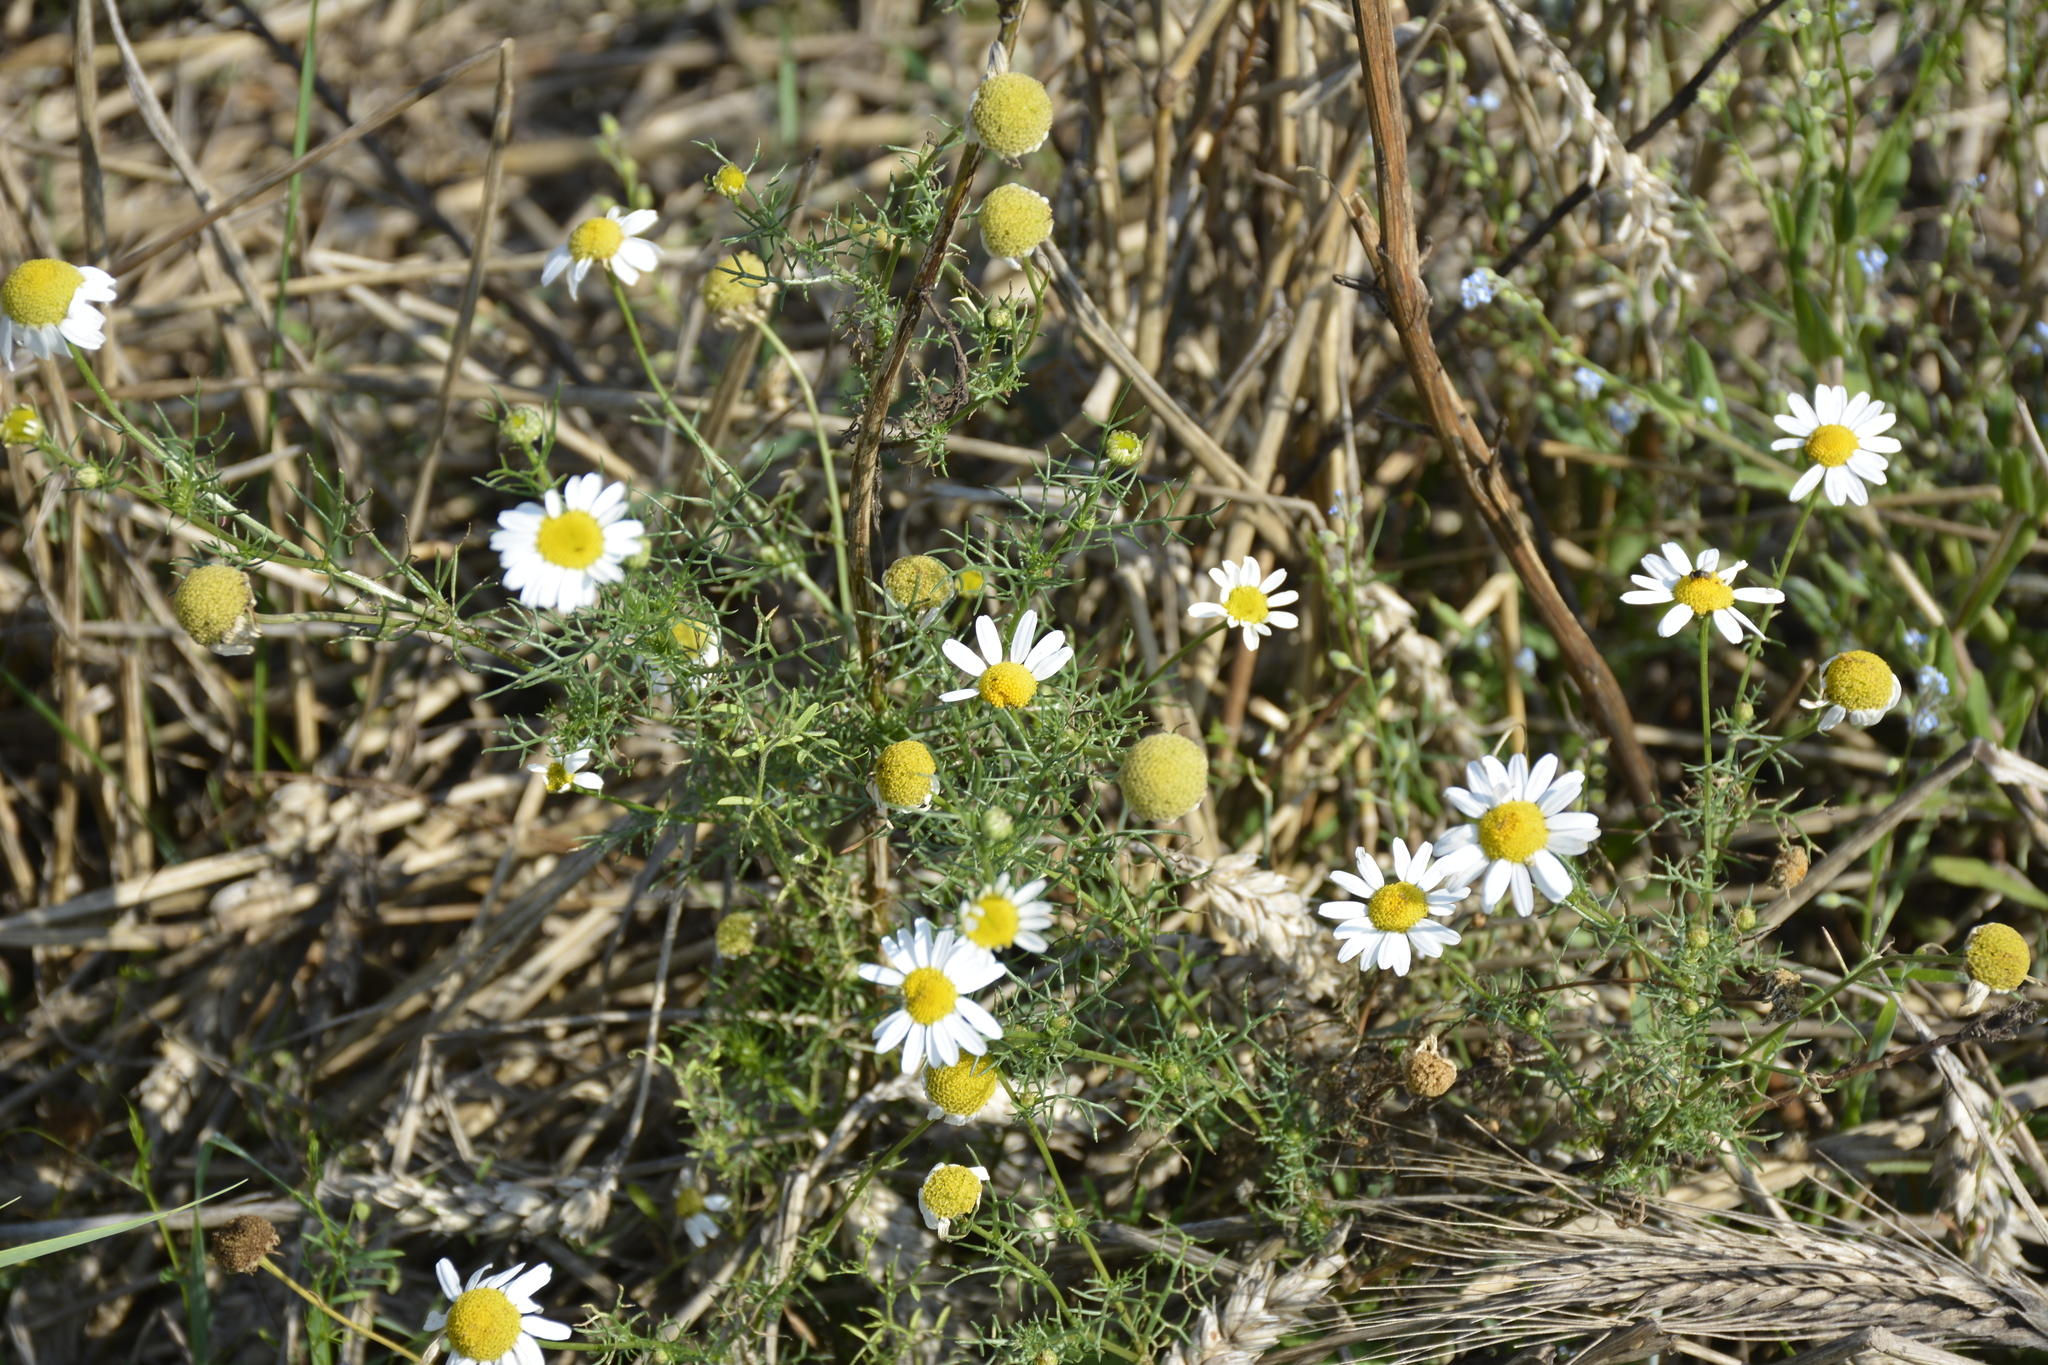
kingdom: Plantae
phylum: Tracheophyta
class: Magnoliopsida
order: Asterales
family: Asteraceae
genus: Tripleurospermum
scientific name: Tripleurospermum inodorum
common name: Scentless mayweed
